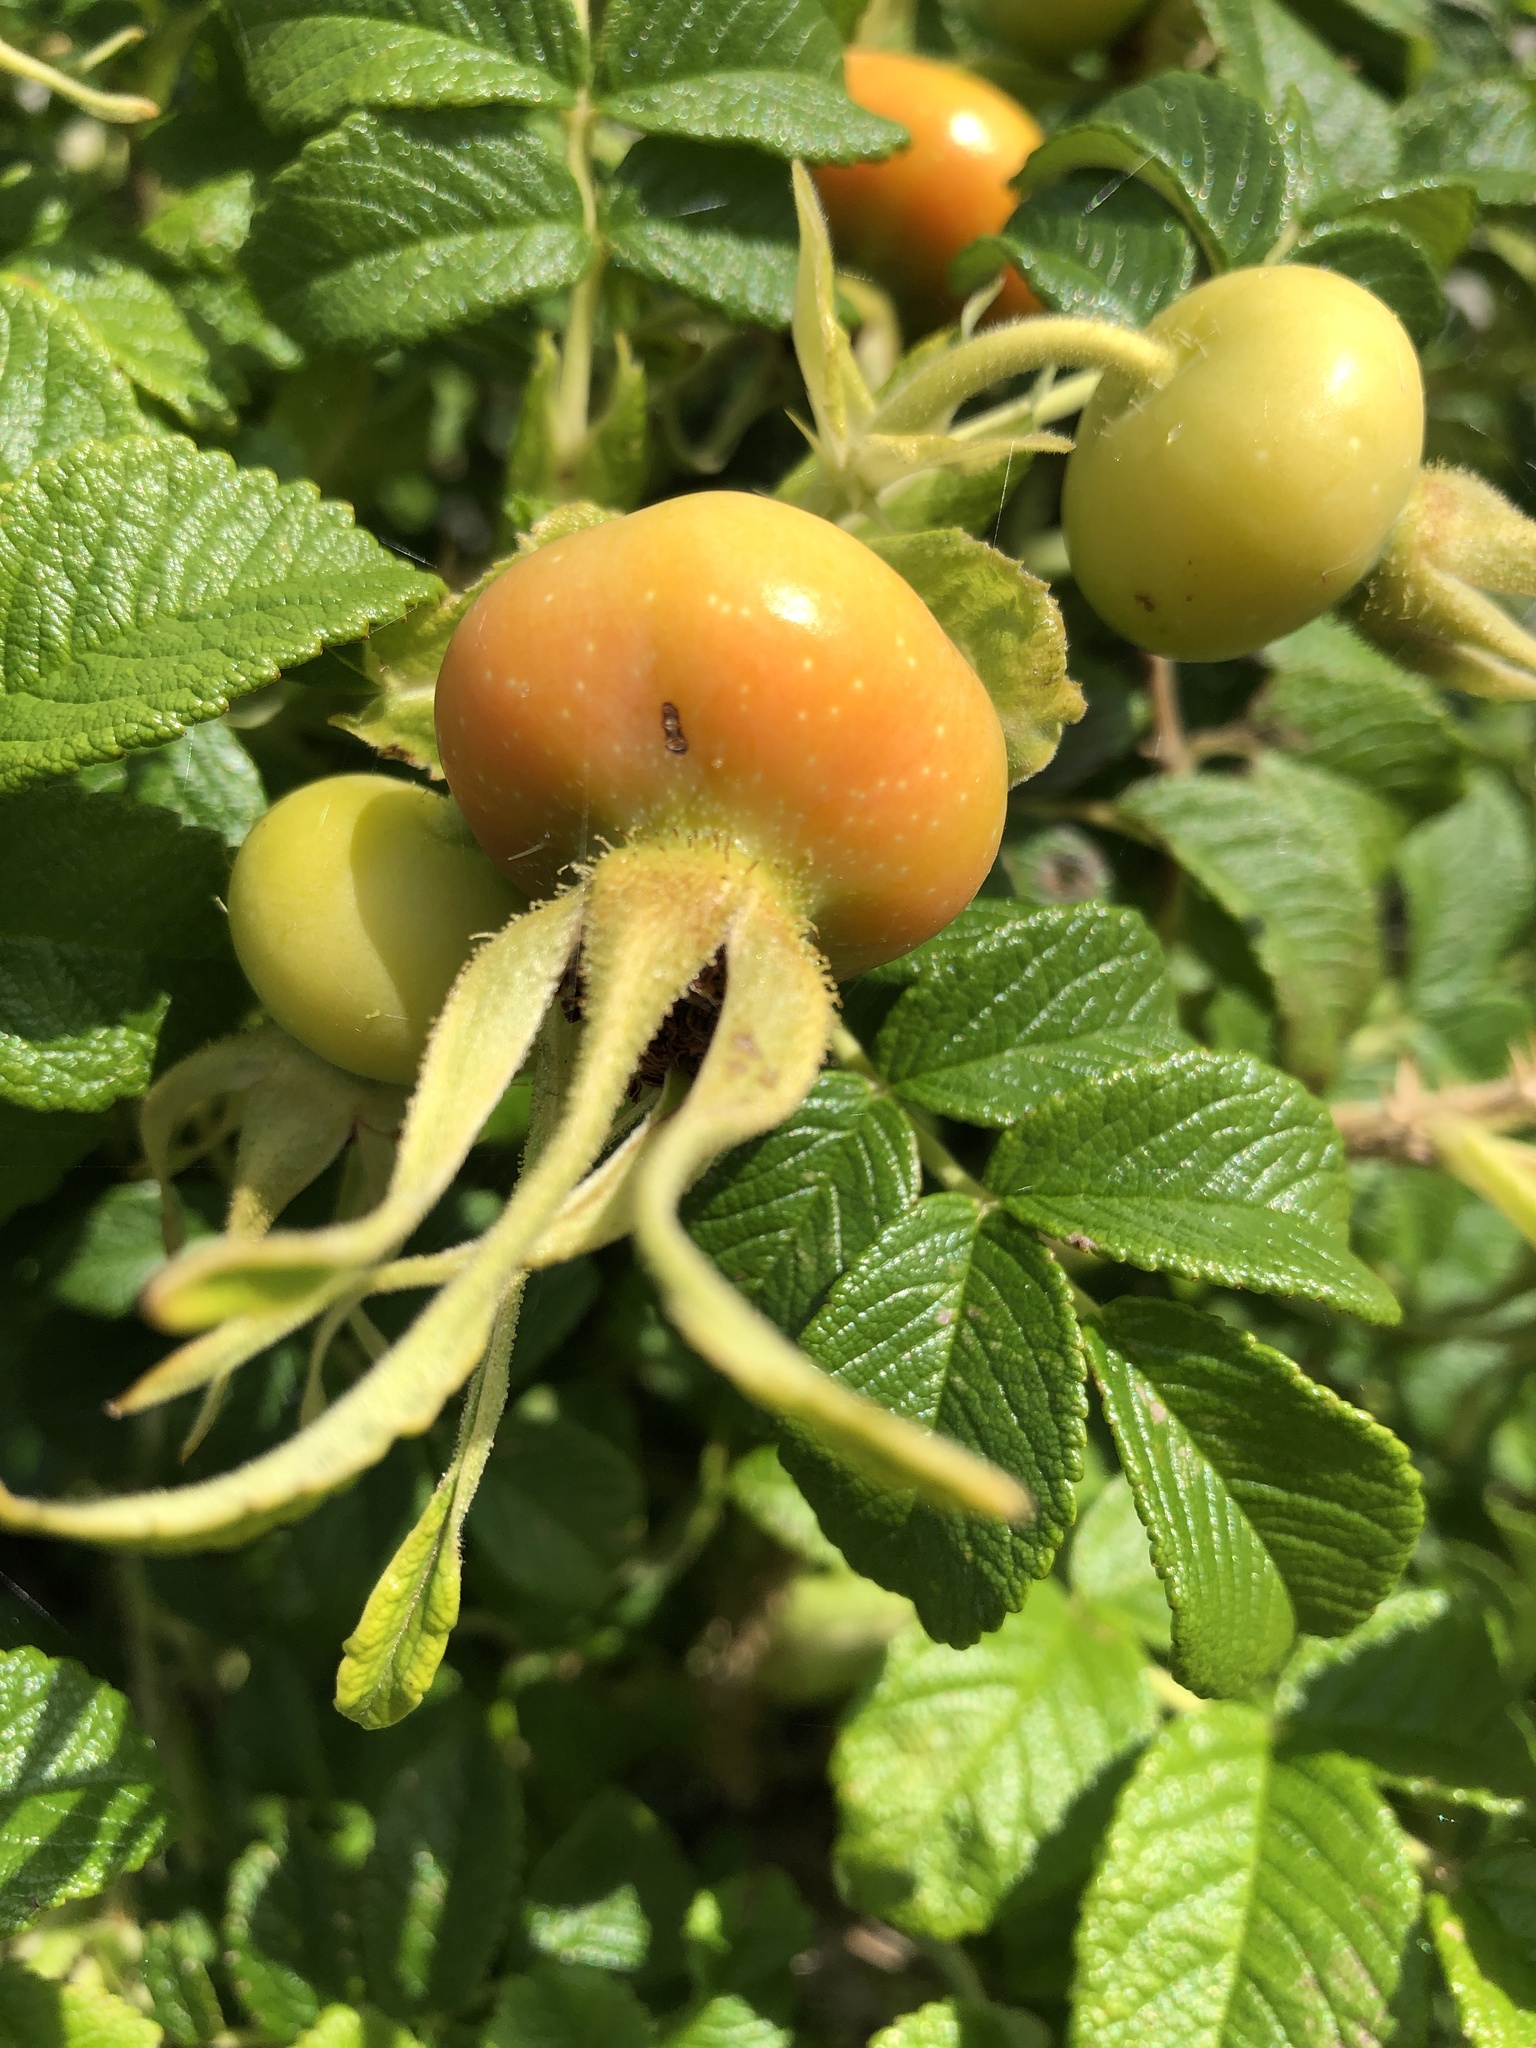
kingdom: Plantae
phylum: Tracheophyta
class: Magnoliopsida
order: Rosales
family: Rosaceae
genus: Rosa
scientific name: Rosa rugosa
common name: Japanese rose
